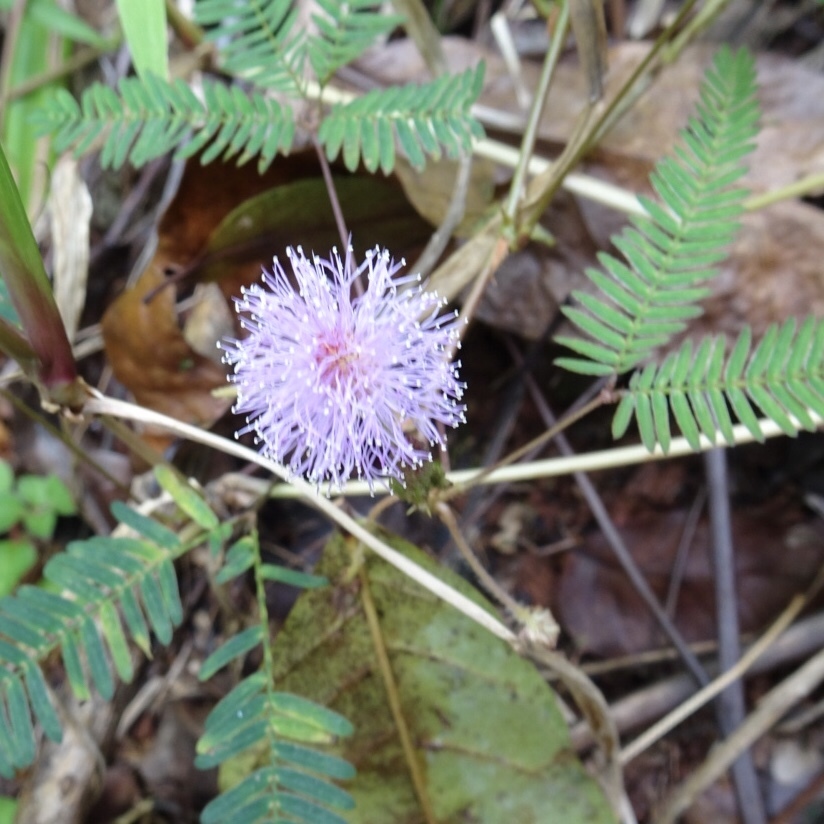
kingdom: Plantae
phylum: Tracheophyta
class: Magnoliopsida
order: Fabales
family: Fabaceae
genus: Mimosa
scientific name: Mimosa pudica
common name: Sensitive plant
